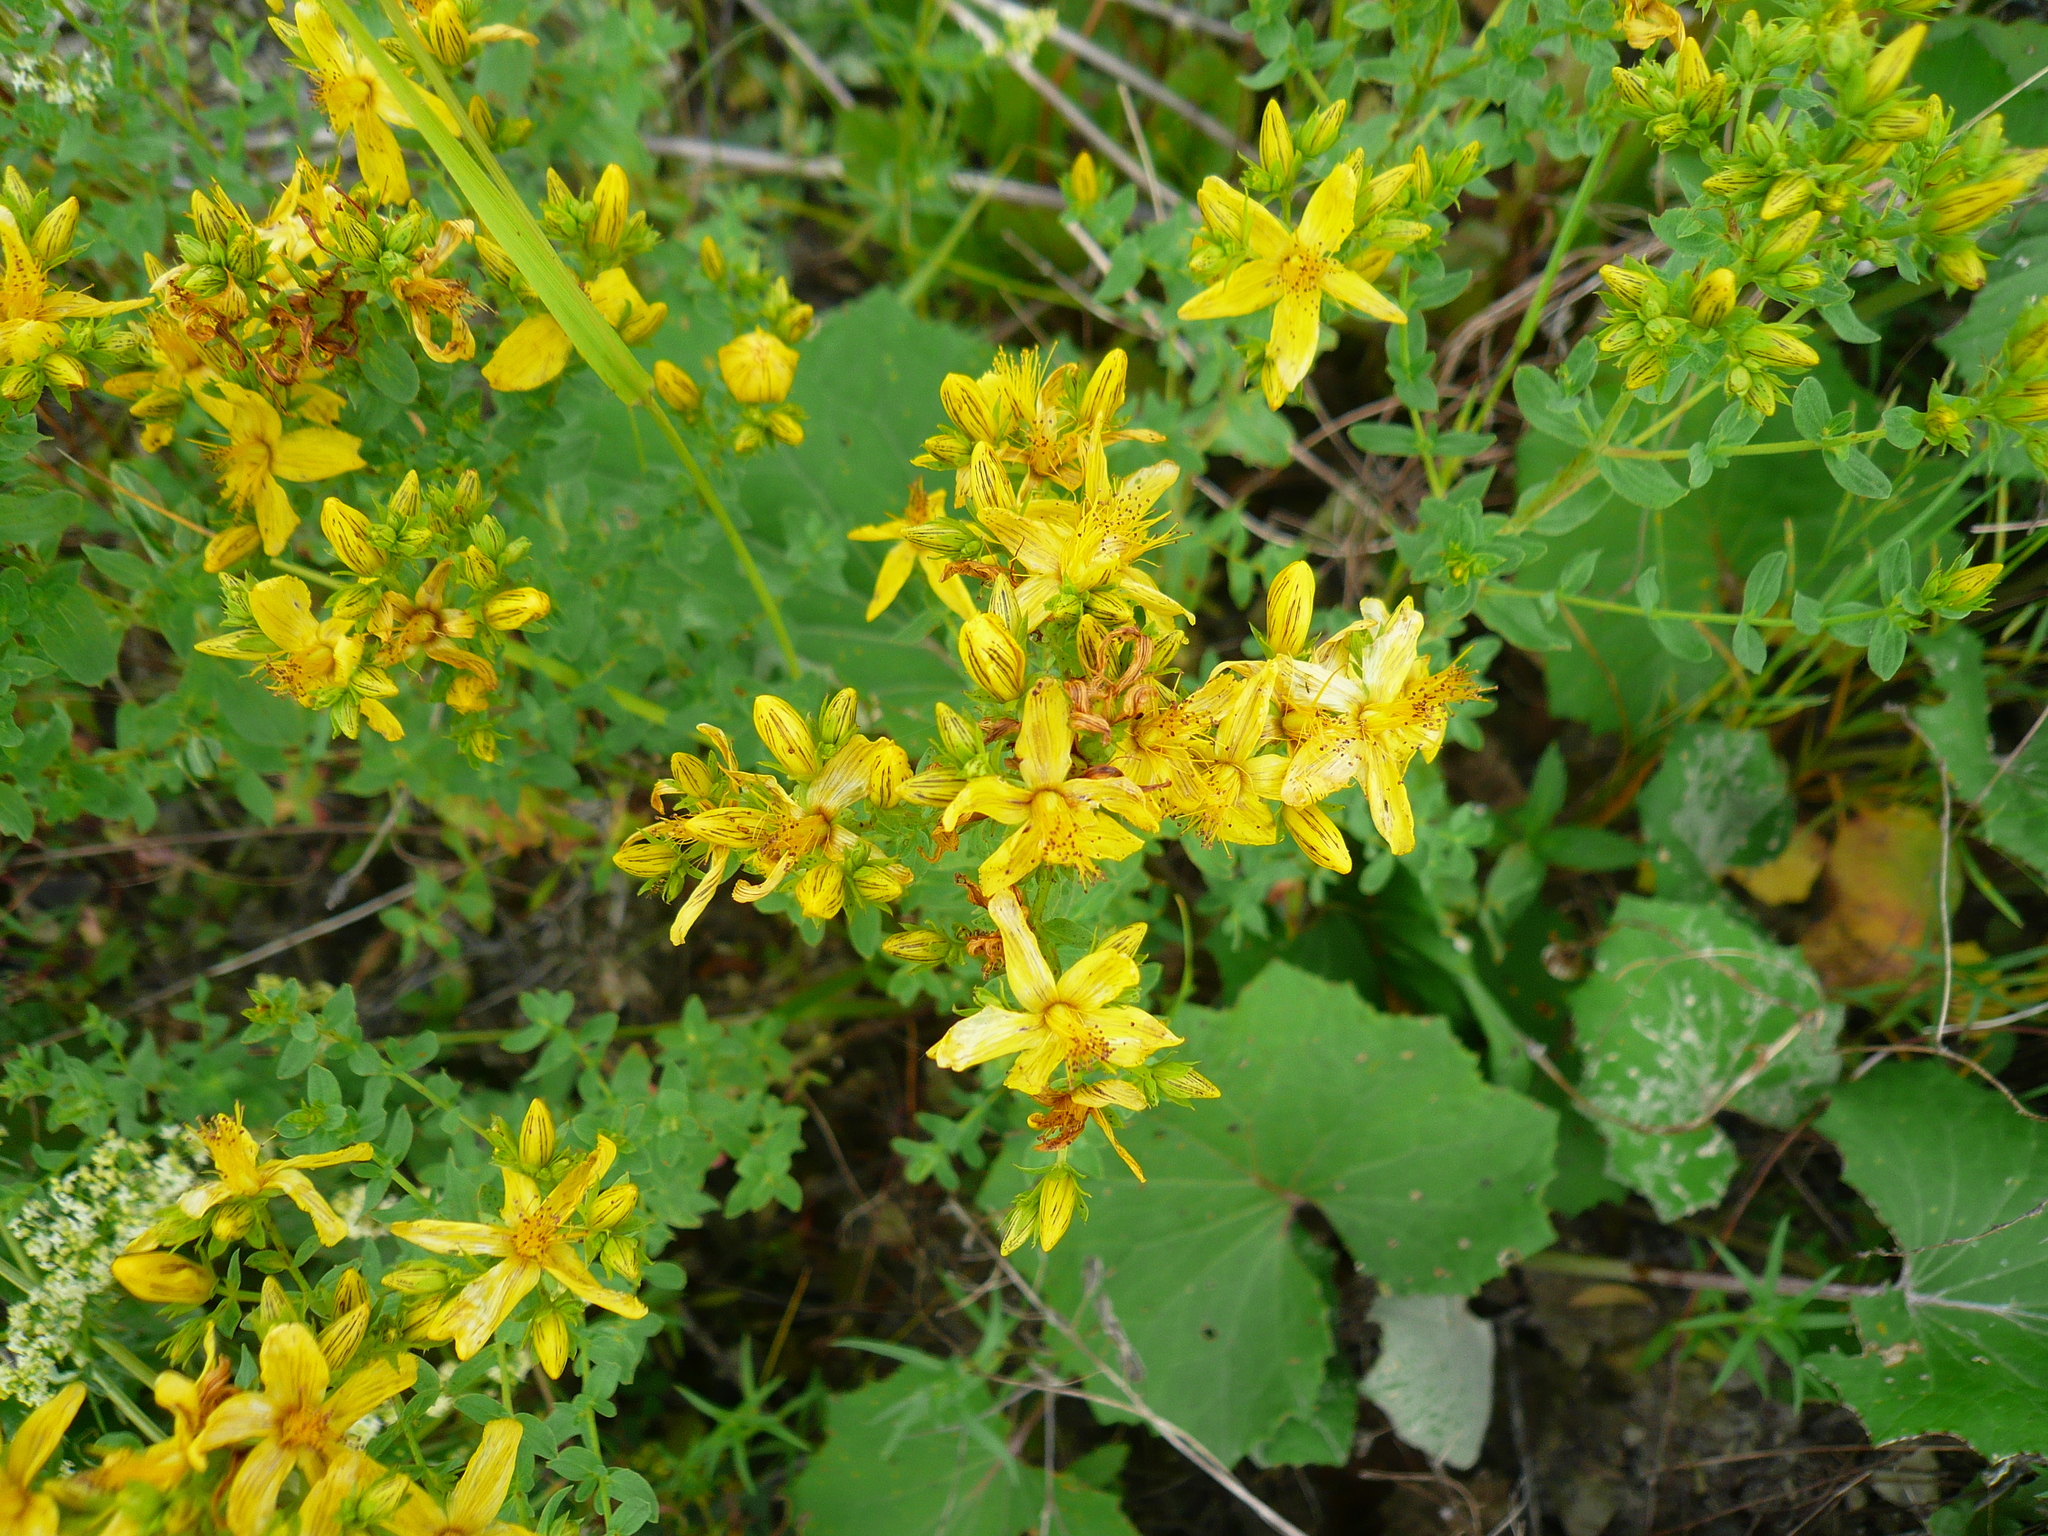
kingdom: Plantae
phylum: Tracheophyta
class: Magnoliopsida
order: Malpighiales
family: Hypericaceae
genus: Hypericum
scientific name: Hypericum perforatum
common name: Common st. johnswort
